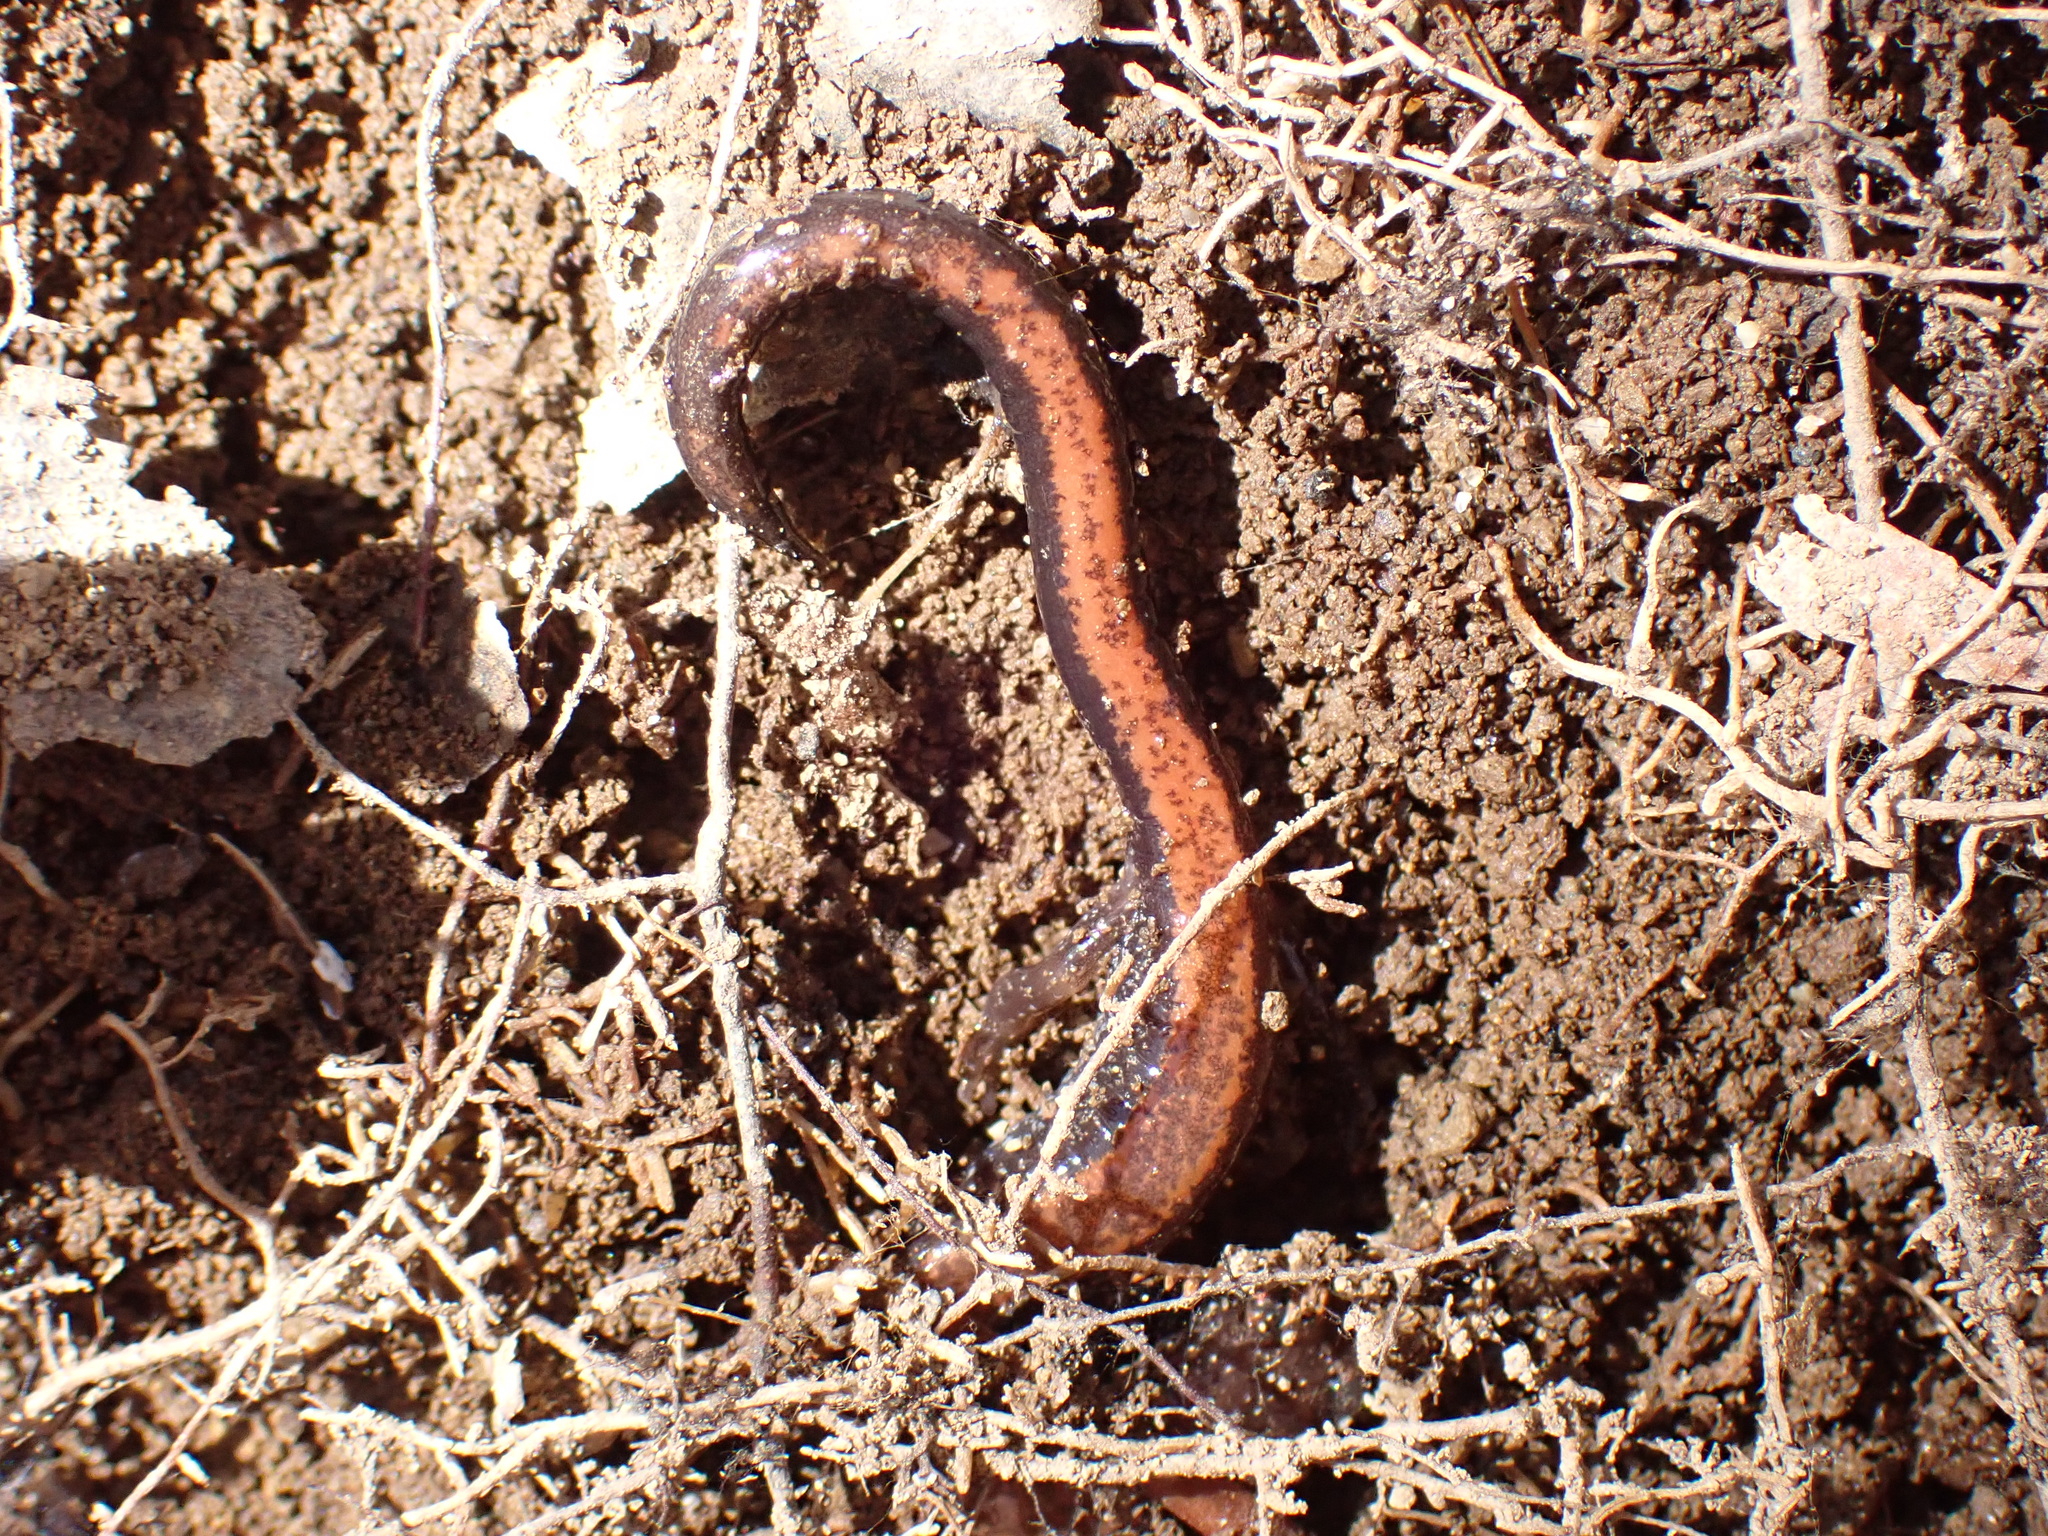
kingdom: Animalia
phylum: Chordata
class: Amphibia
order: Caudata
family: Plethodontidae
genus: Plethodon
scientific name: Plethodon cinereus
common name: Redback salamander
